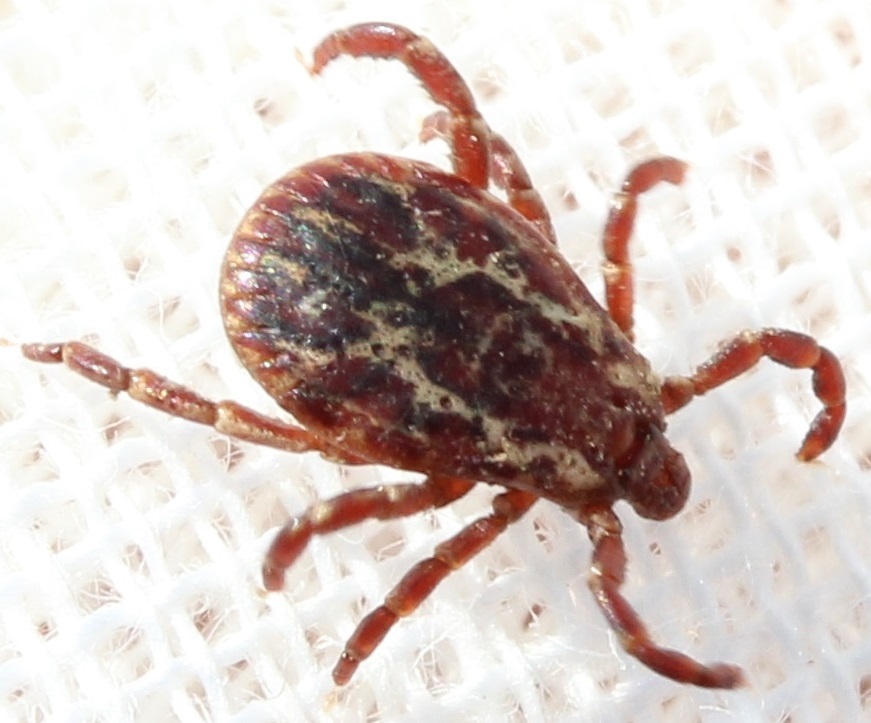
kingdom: Animalia
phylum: Arthropoda
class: Arachnida
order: Ixodida
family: Ixodidae
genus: Dermacentor
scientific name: Dermacentor variabilis
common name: American dog tick
